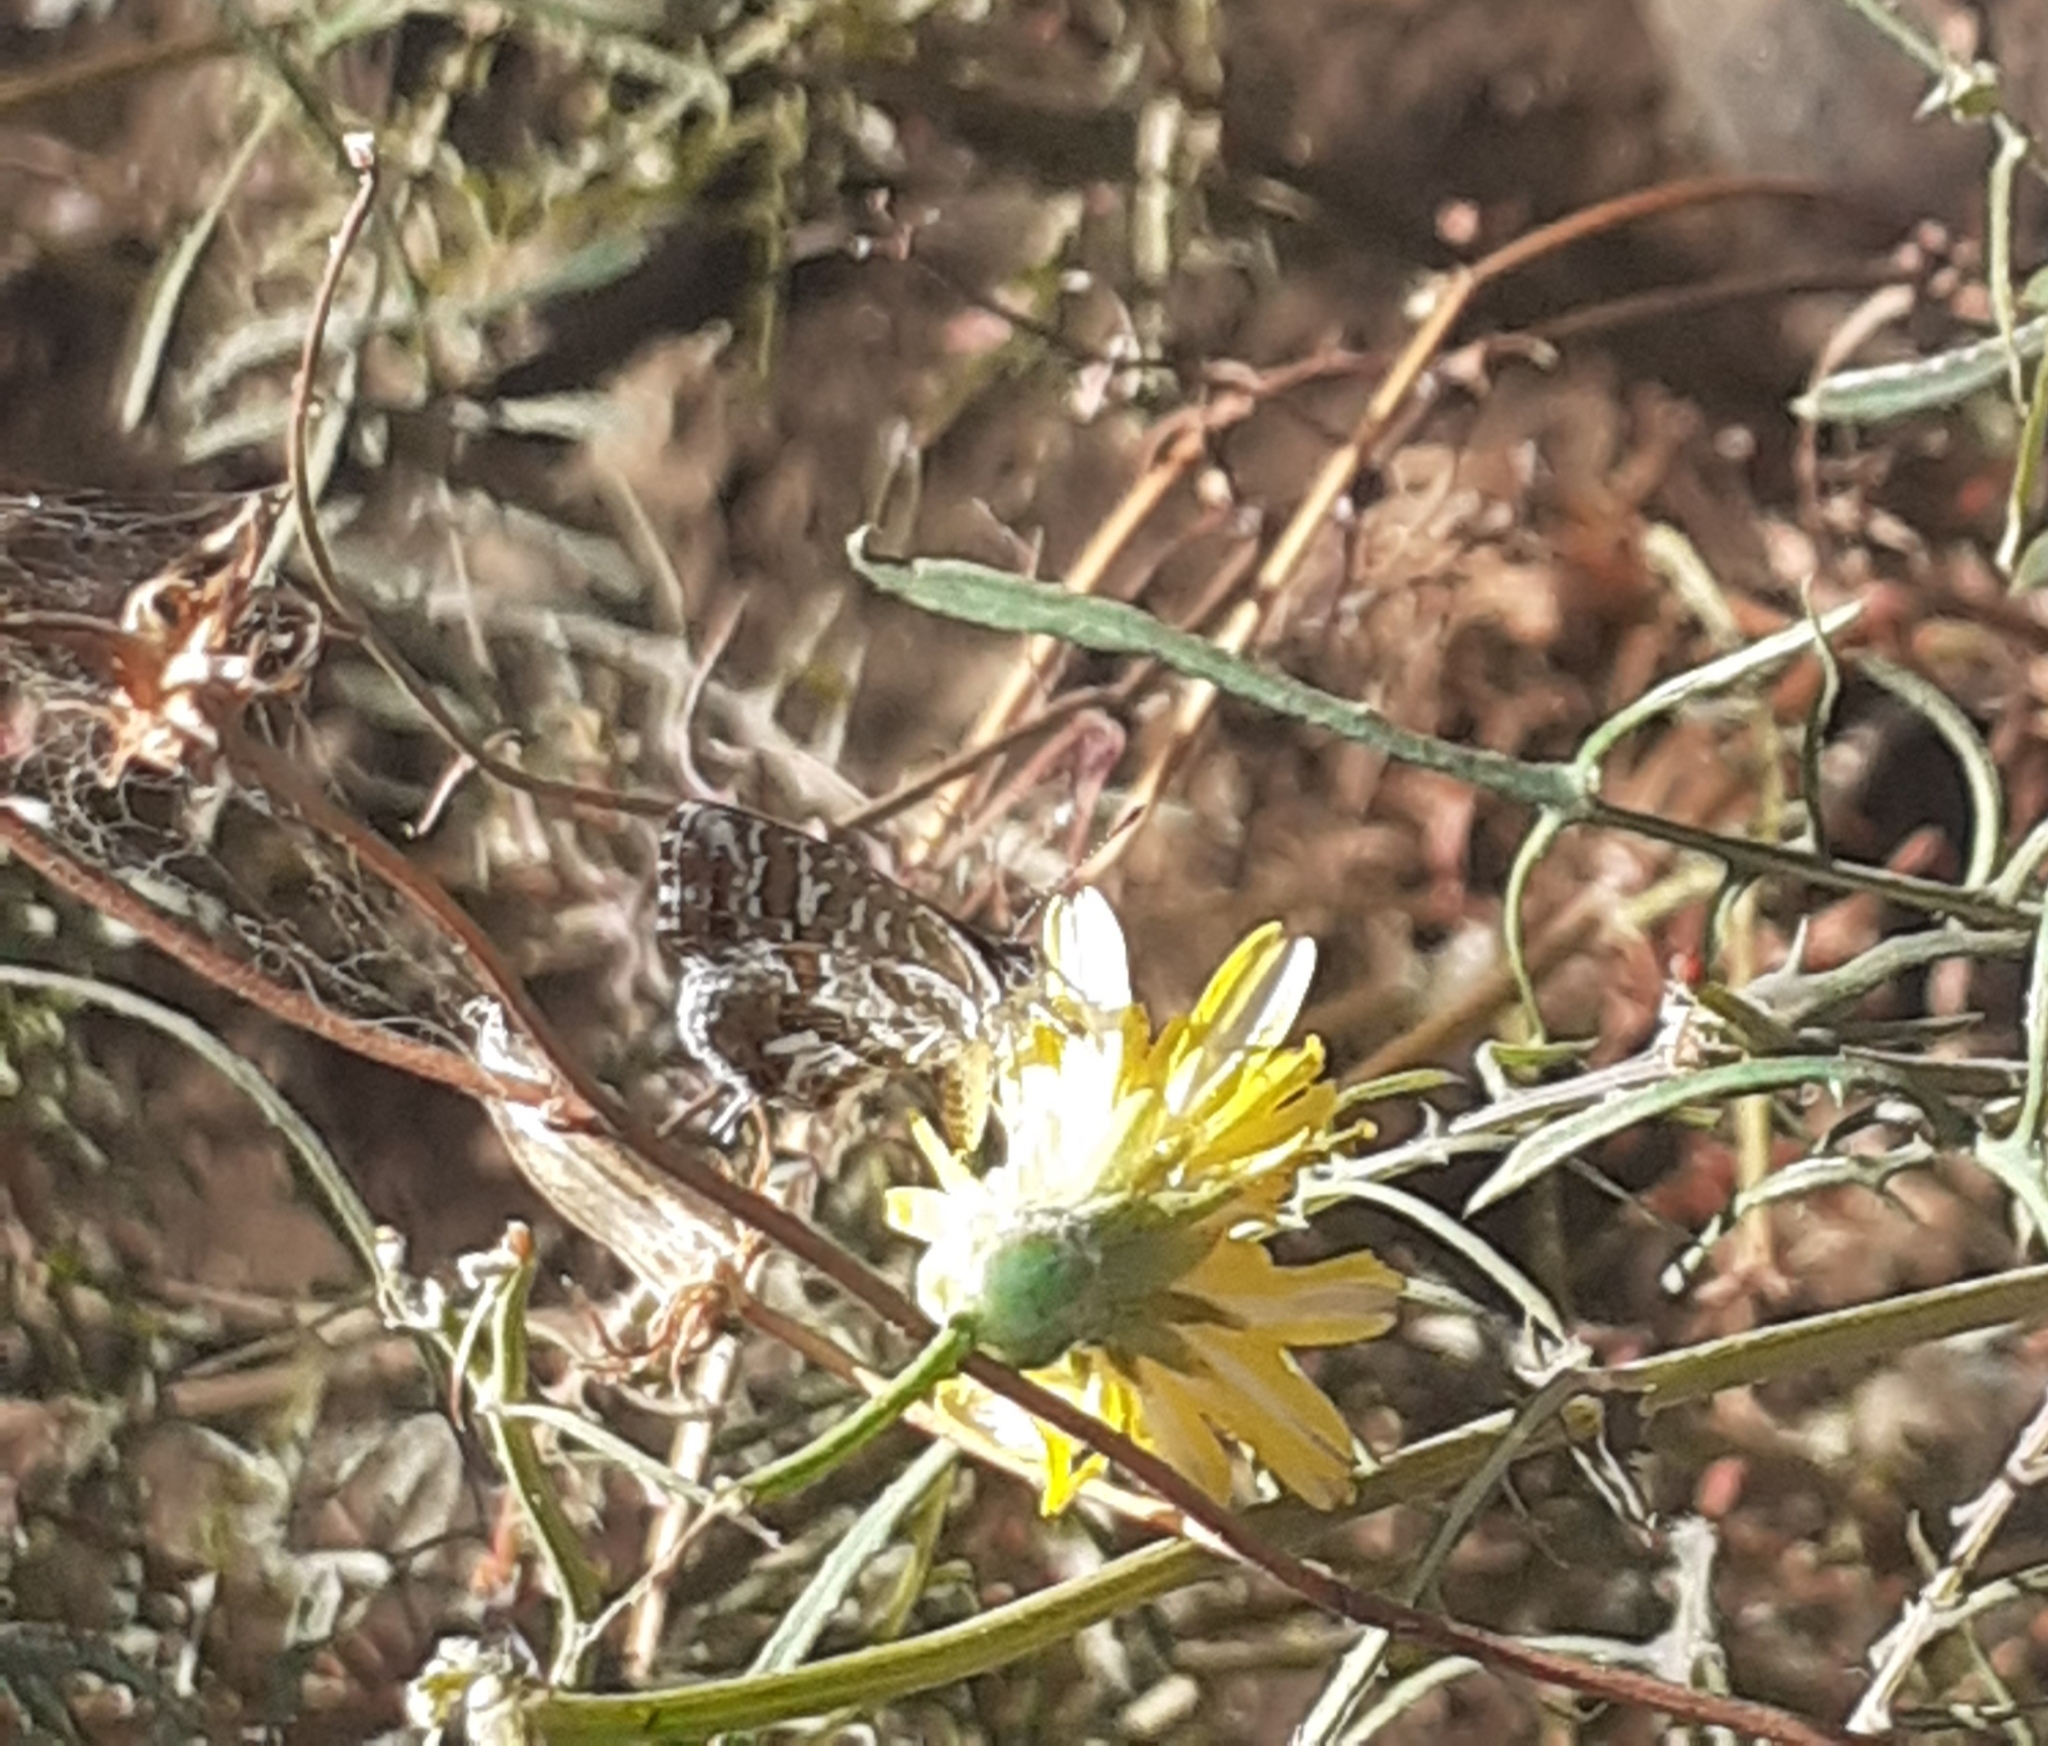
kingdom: Animalia
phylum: Arthropoda
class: Insecta
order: Lepidoptera
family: Lycaenidae
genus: Cacyreus
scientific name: Cacyreus marshalli
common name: Geranium bronze
